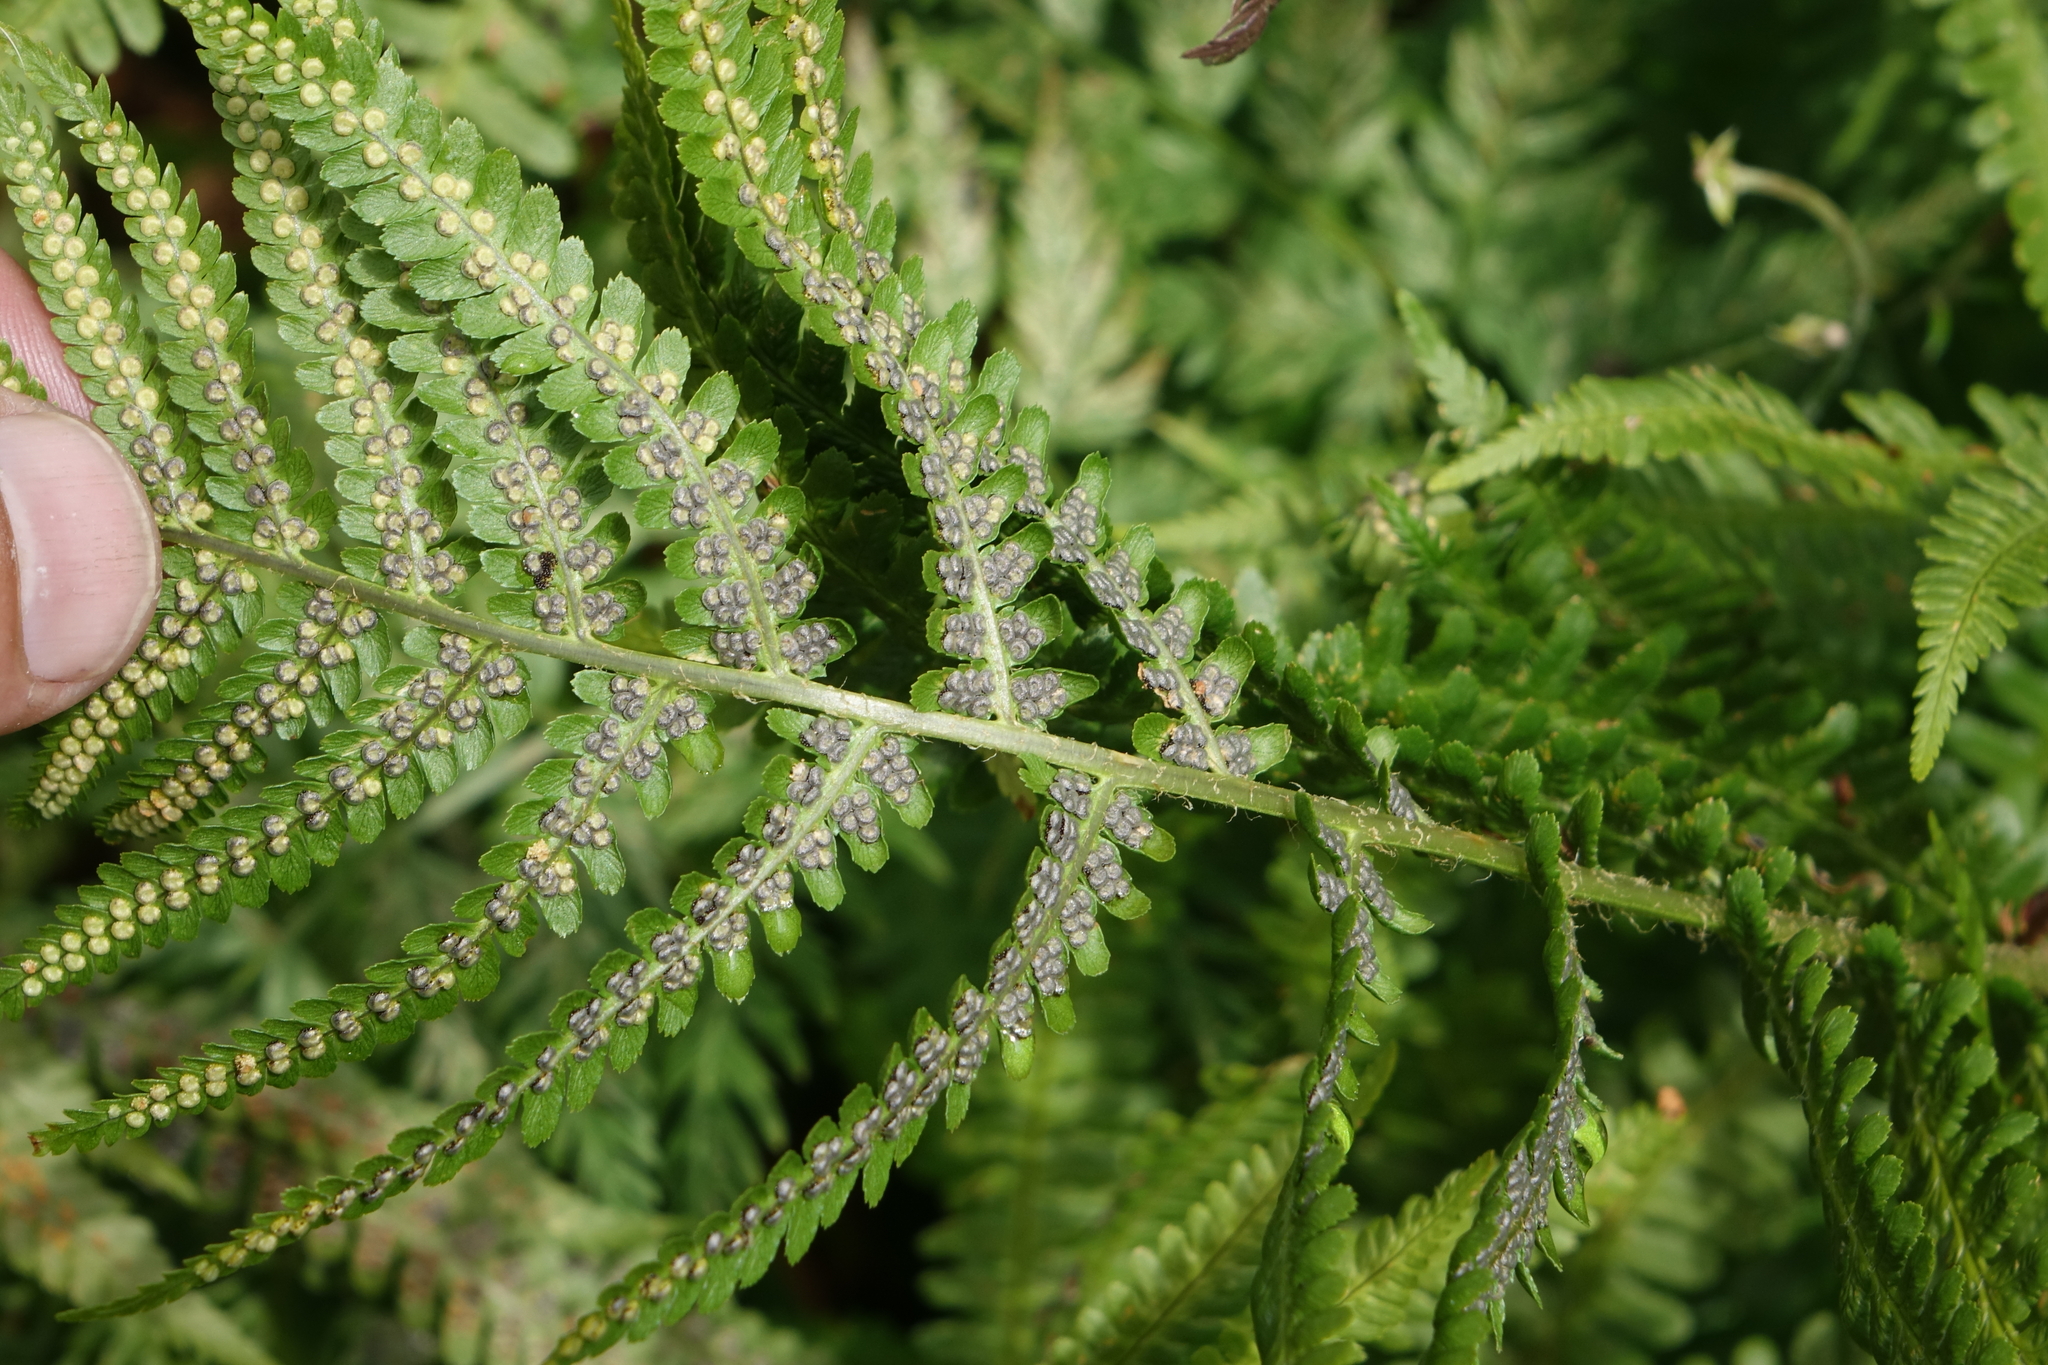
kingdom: Plantae
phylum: Tracheophyta
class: Polypodiopsida
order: Polypodiales
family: Dryopteridaceae
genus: Dryopteris
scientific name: Dryopteris filix-mas
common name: Male fern
